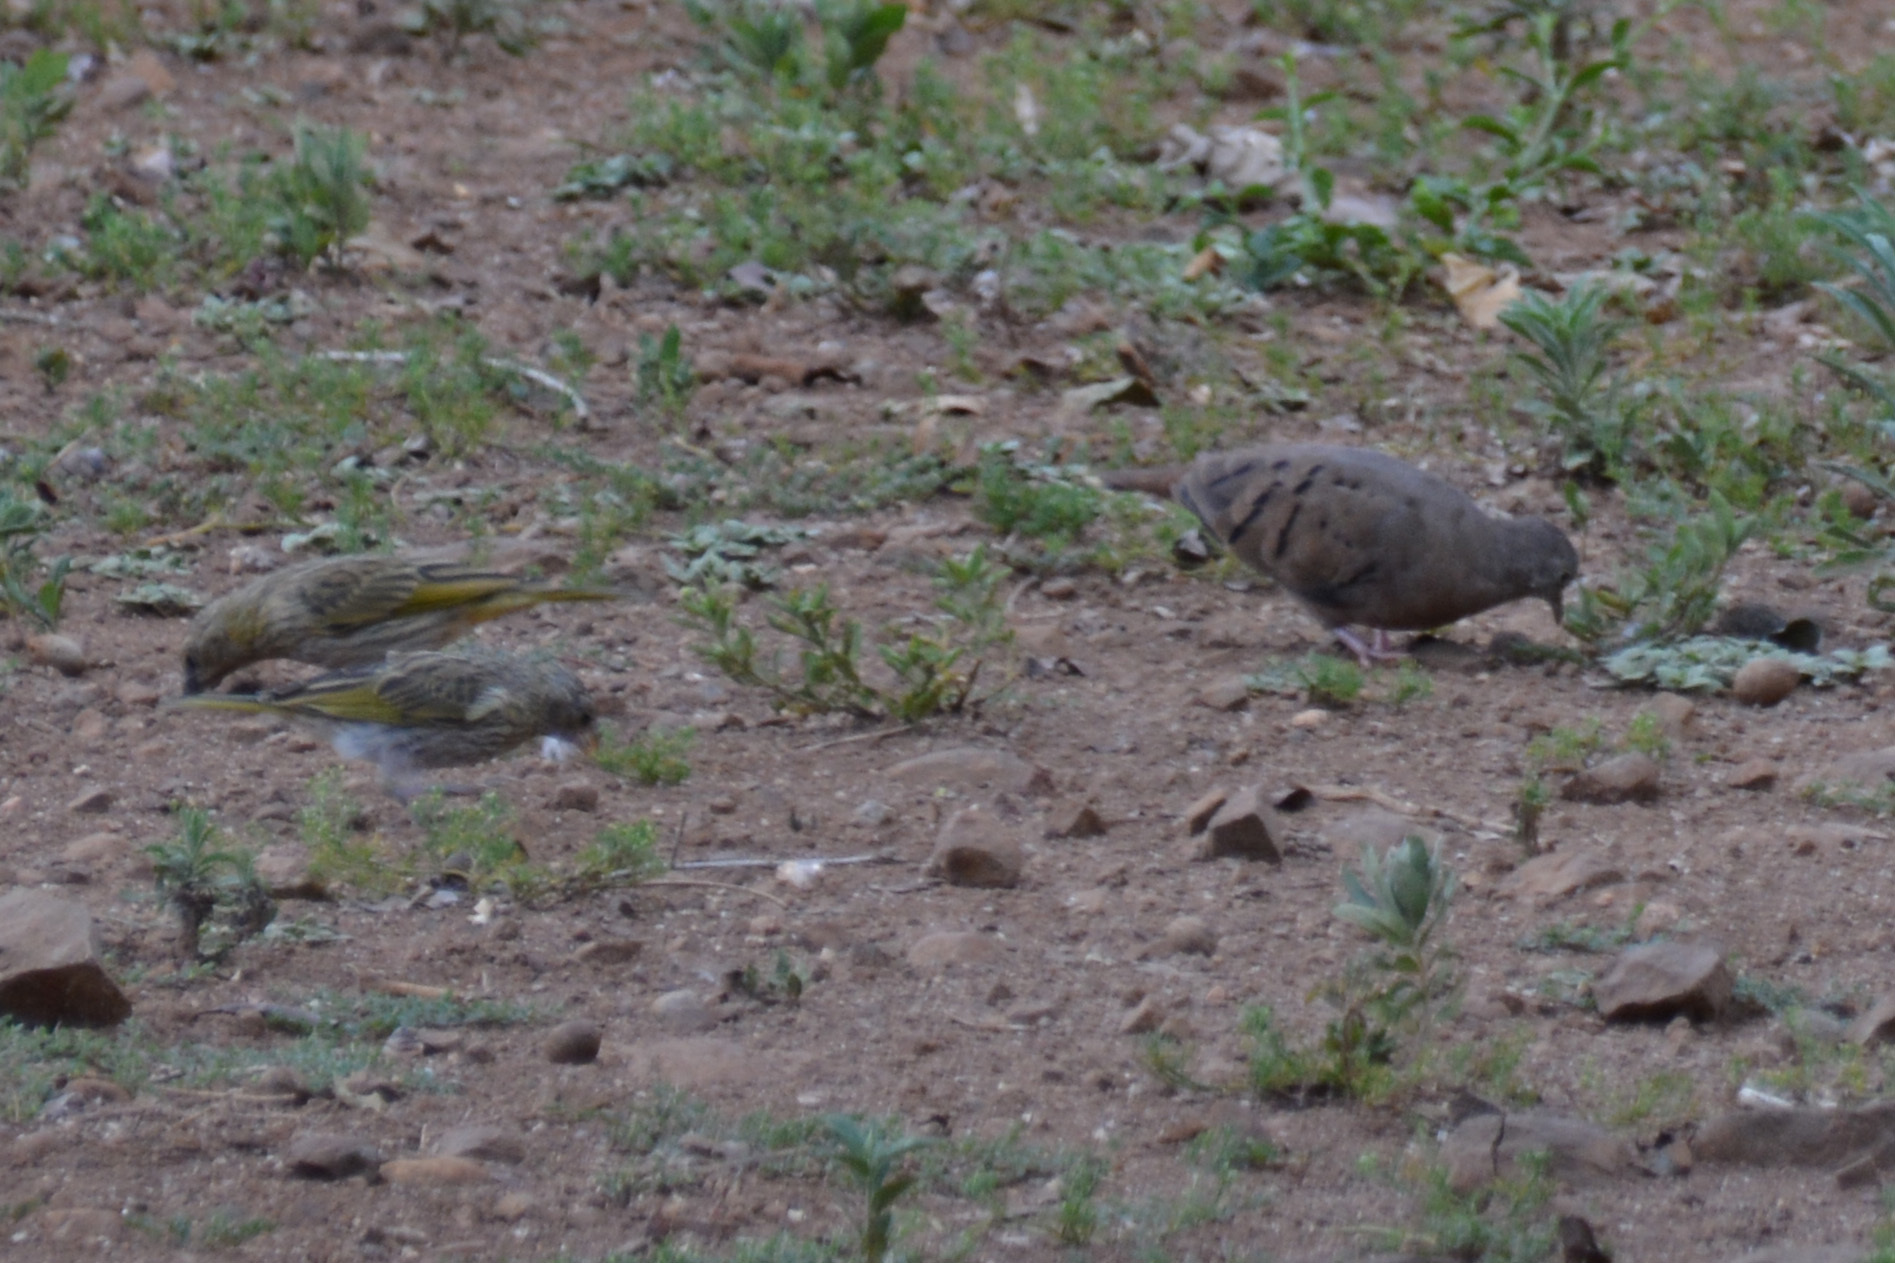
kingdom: Animalia
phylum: Chordata
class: Aves
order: Passeriformes
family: Thraupidae
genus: Sicalis
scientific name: Sicalis flaveola
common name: Saffron finch
